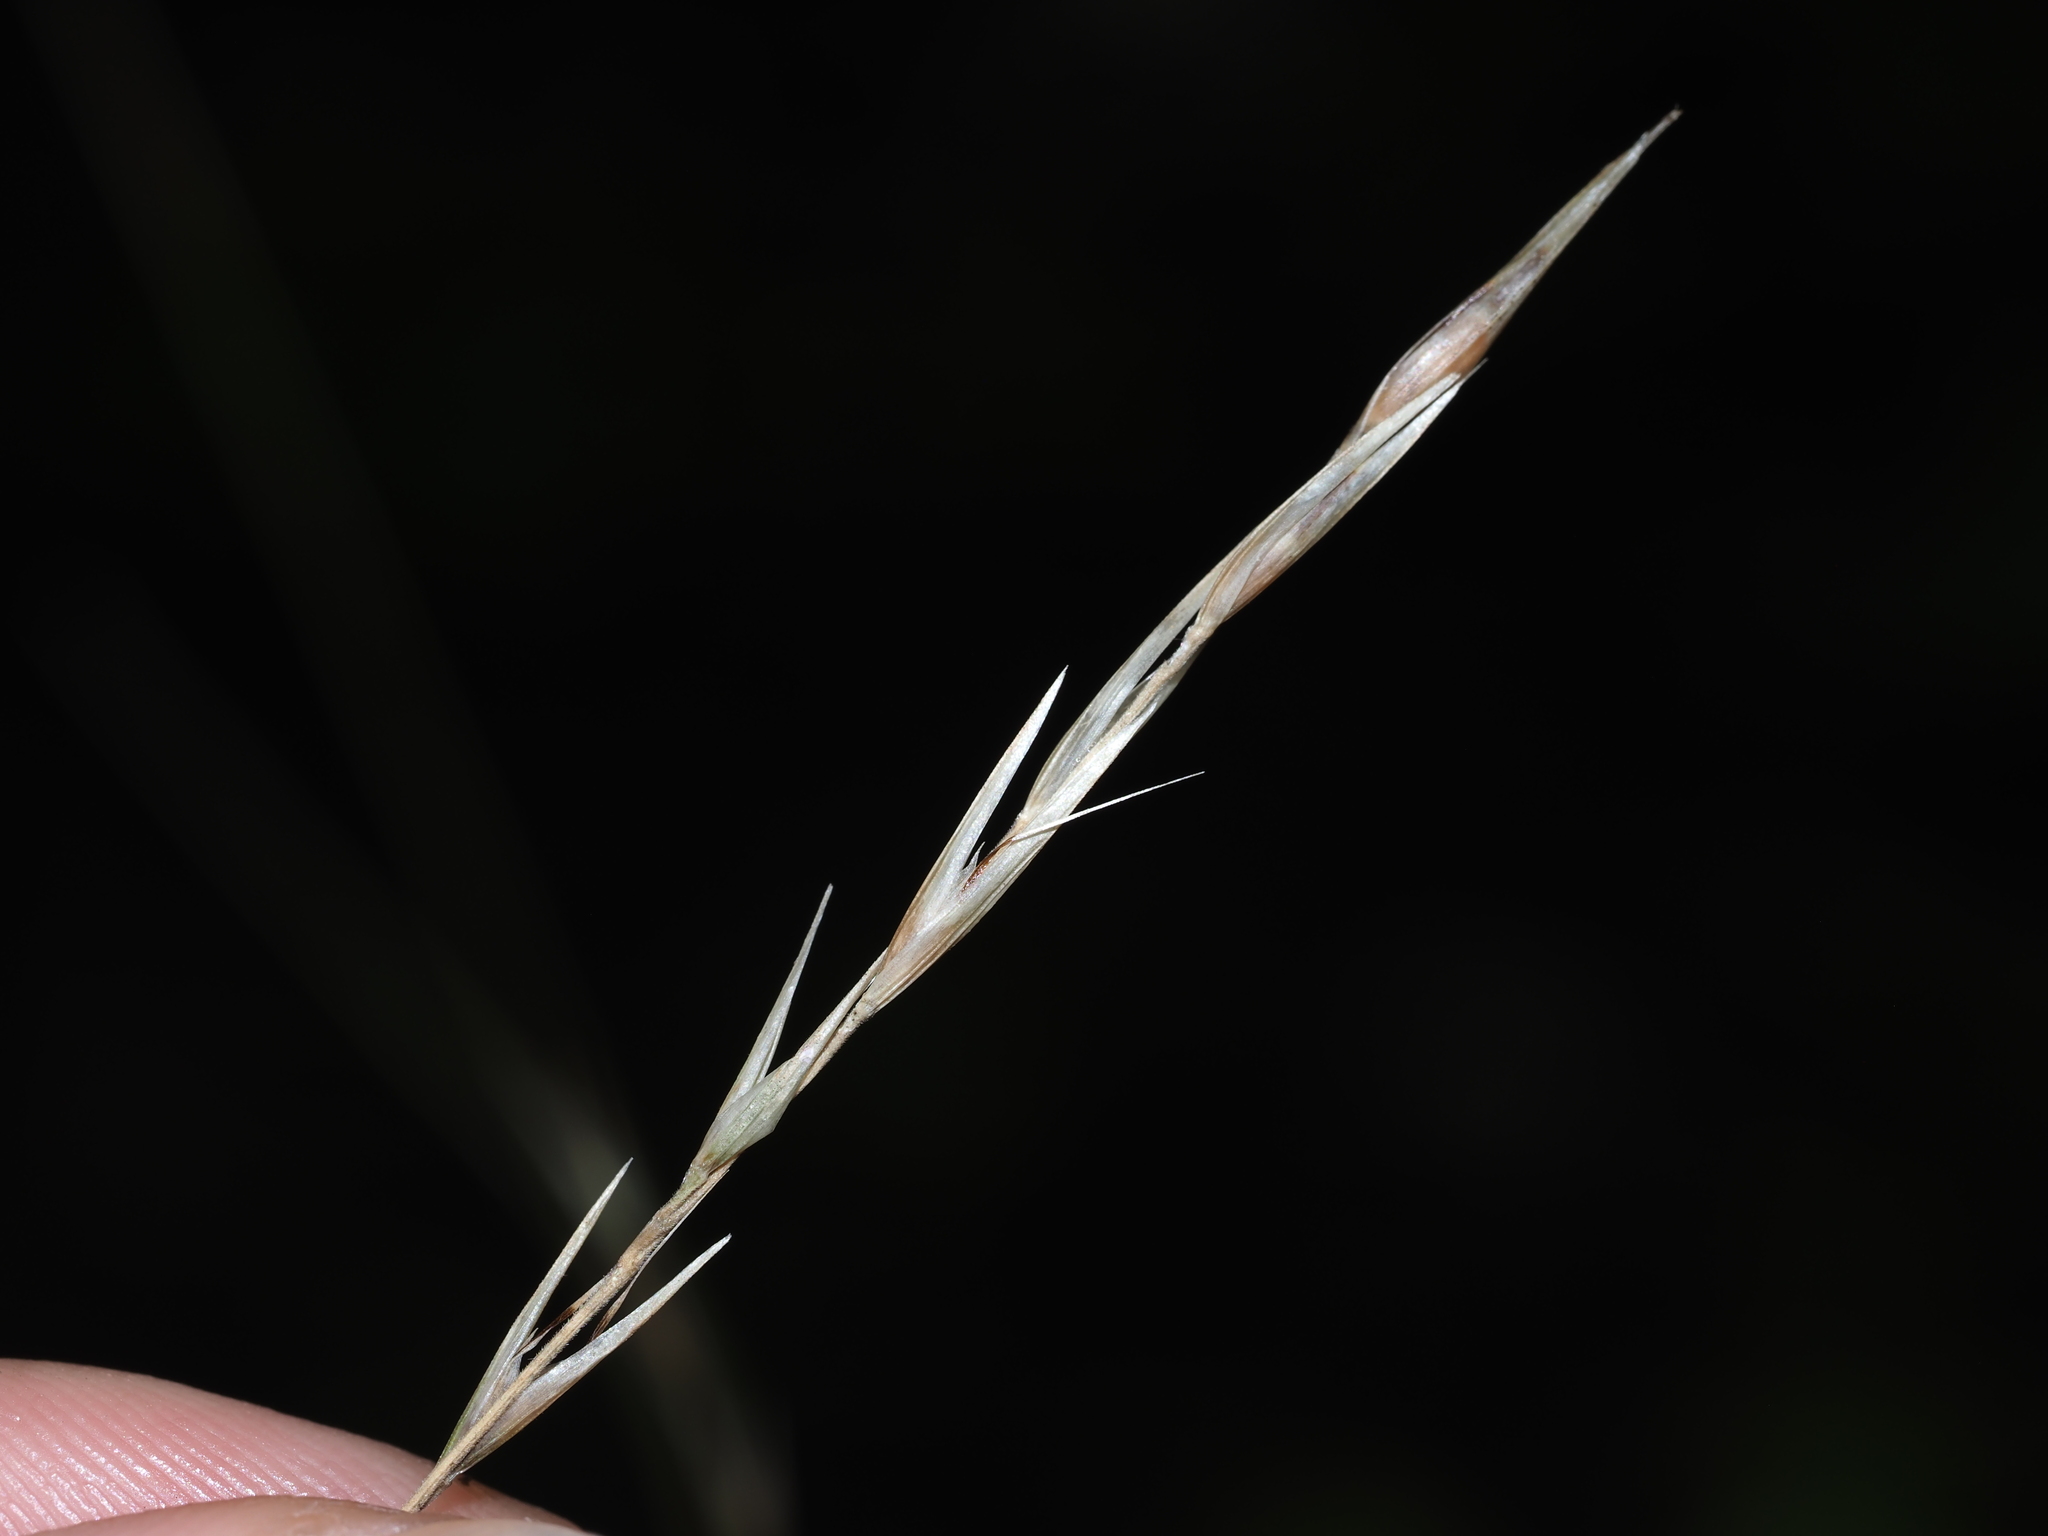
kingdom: Plantae
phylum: Tracheophyta
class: Liliopsida
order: Poales
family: Poaceae
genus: Danthonia
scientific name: Danthonia spicata
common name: Common wild oatgrass
